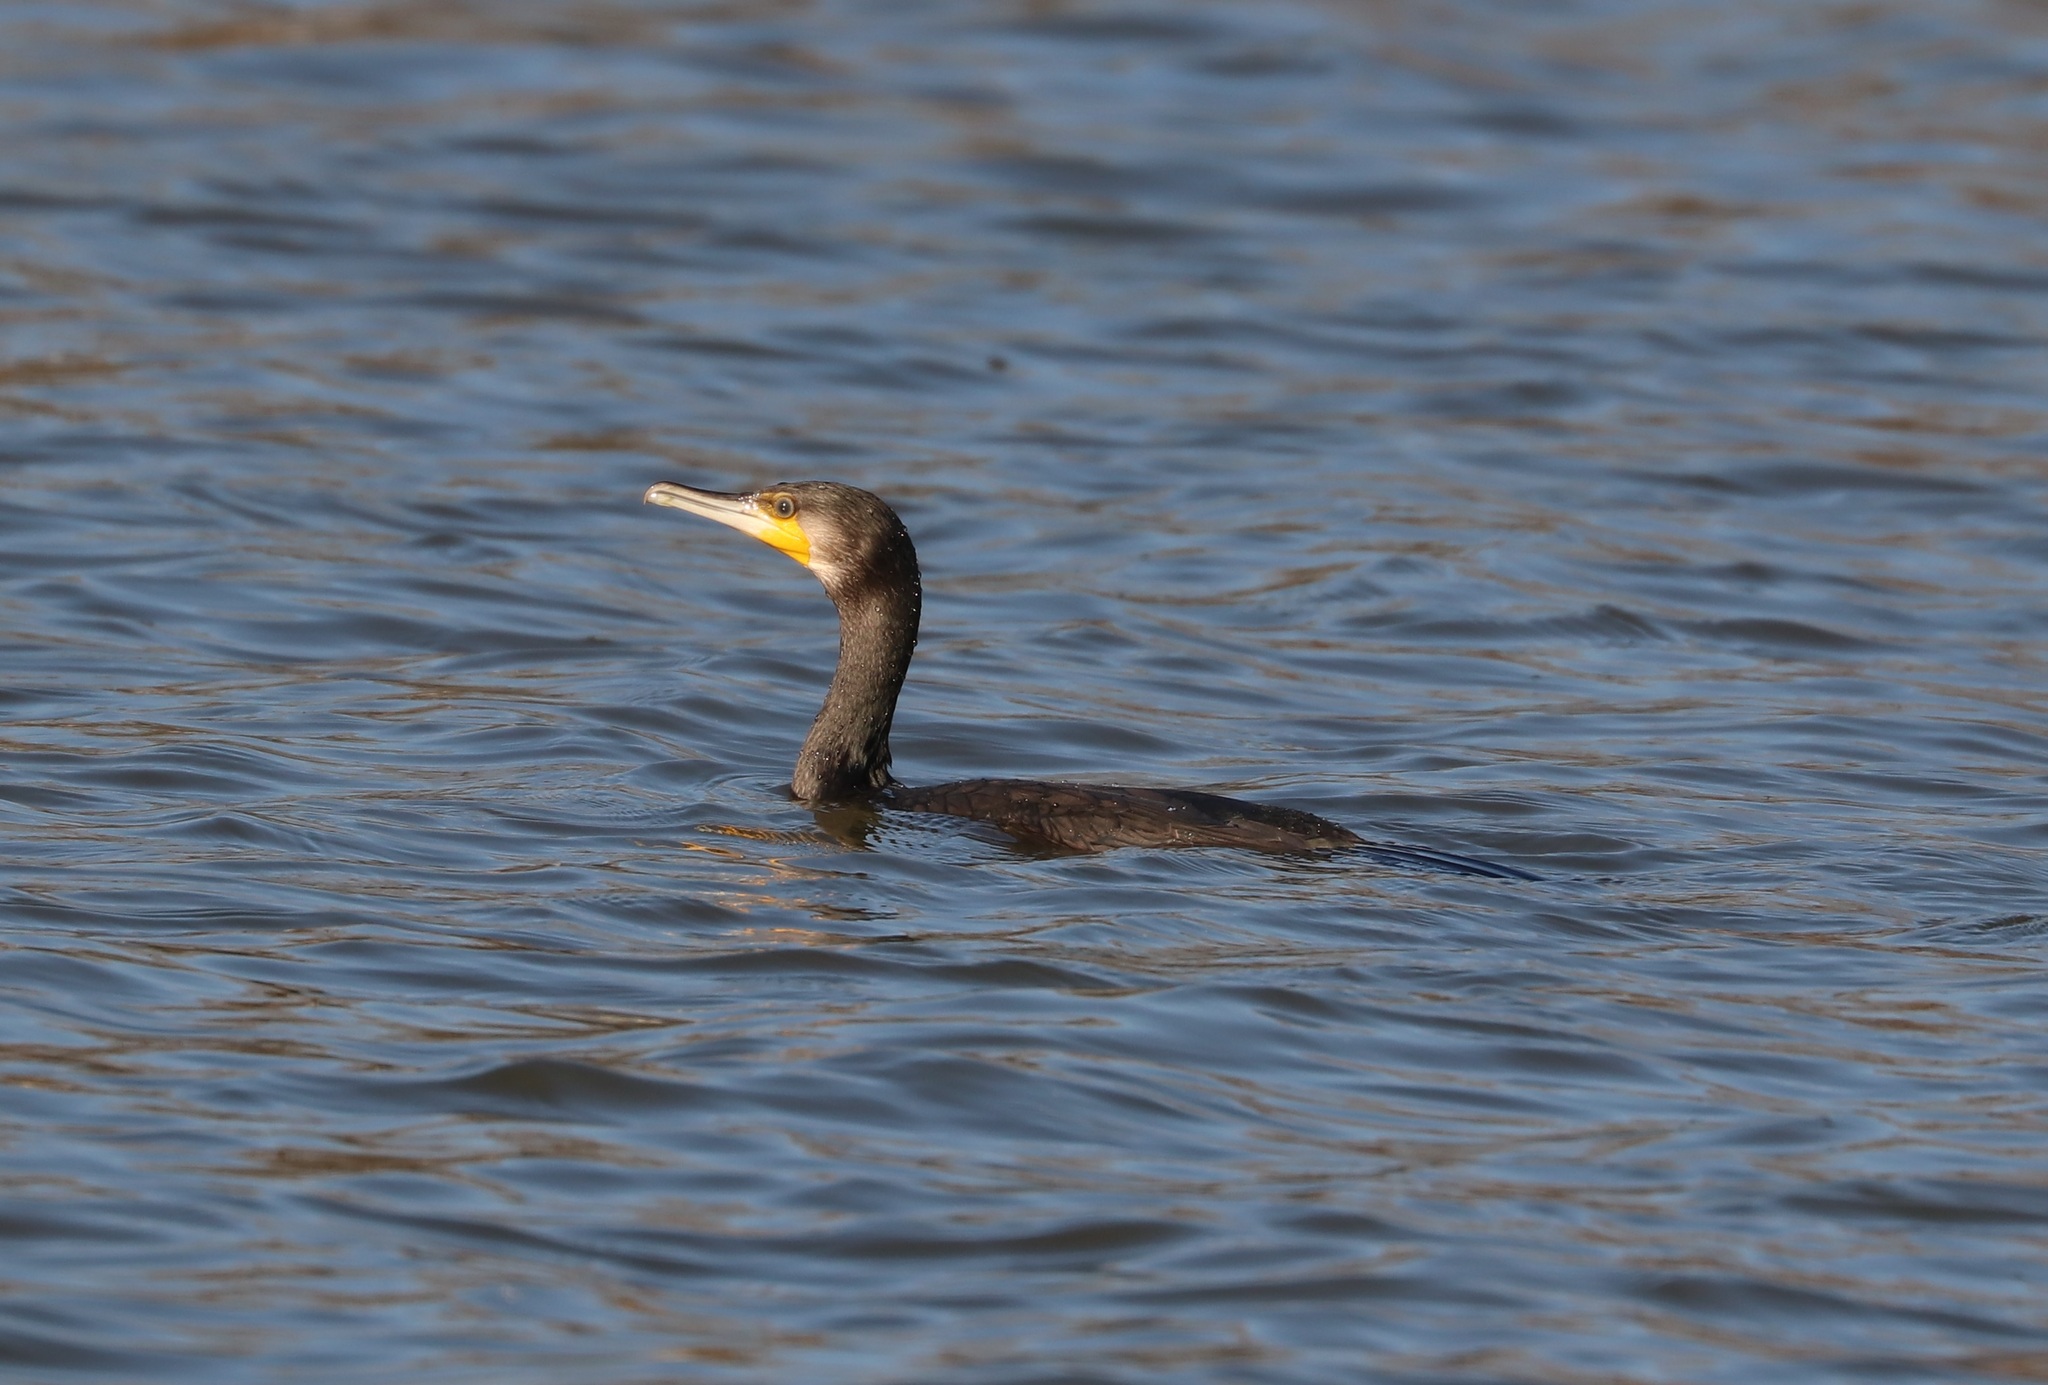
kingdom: Animalia
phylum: Chordata
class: Aves
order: Suliformes
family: Phalacrocoracidae
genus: Phalacrocorax
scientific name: Phalacrocorax carbo
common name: Great cormorant
